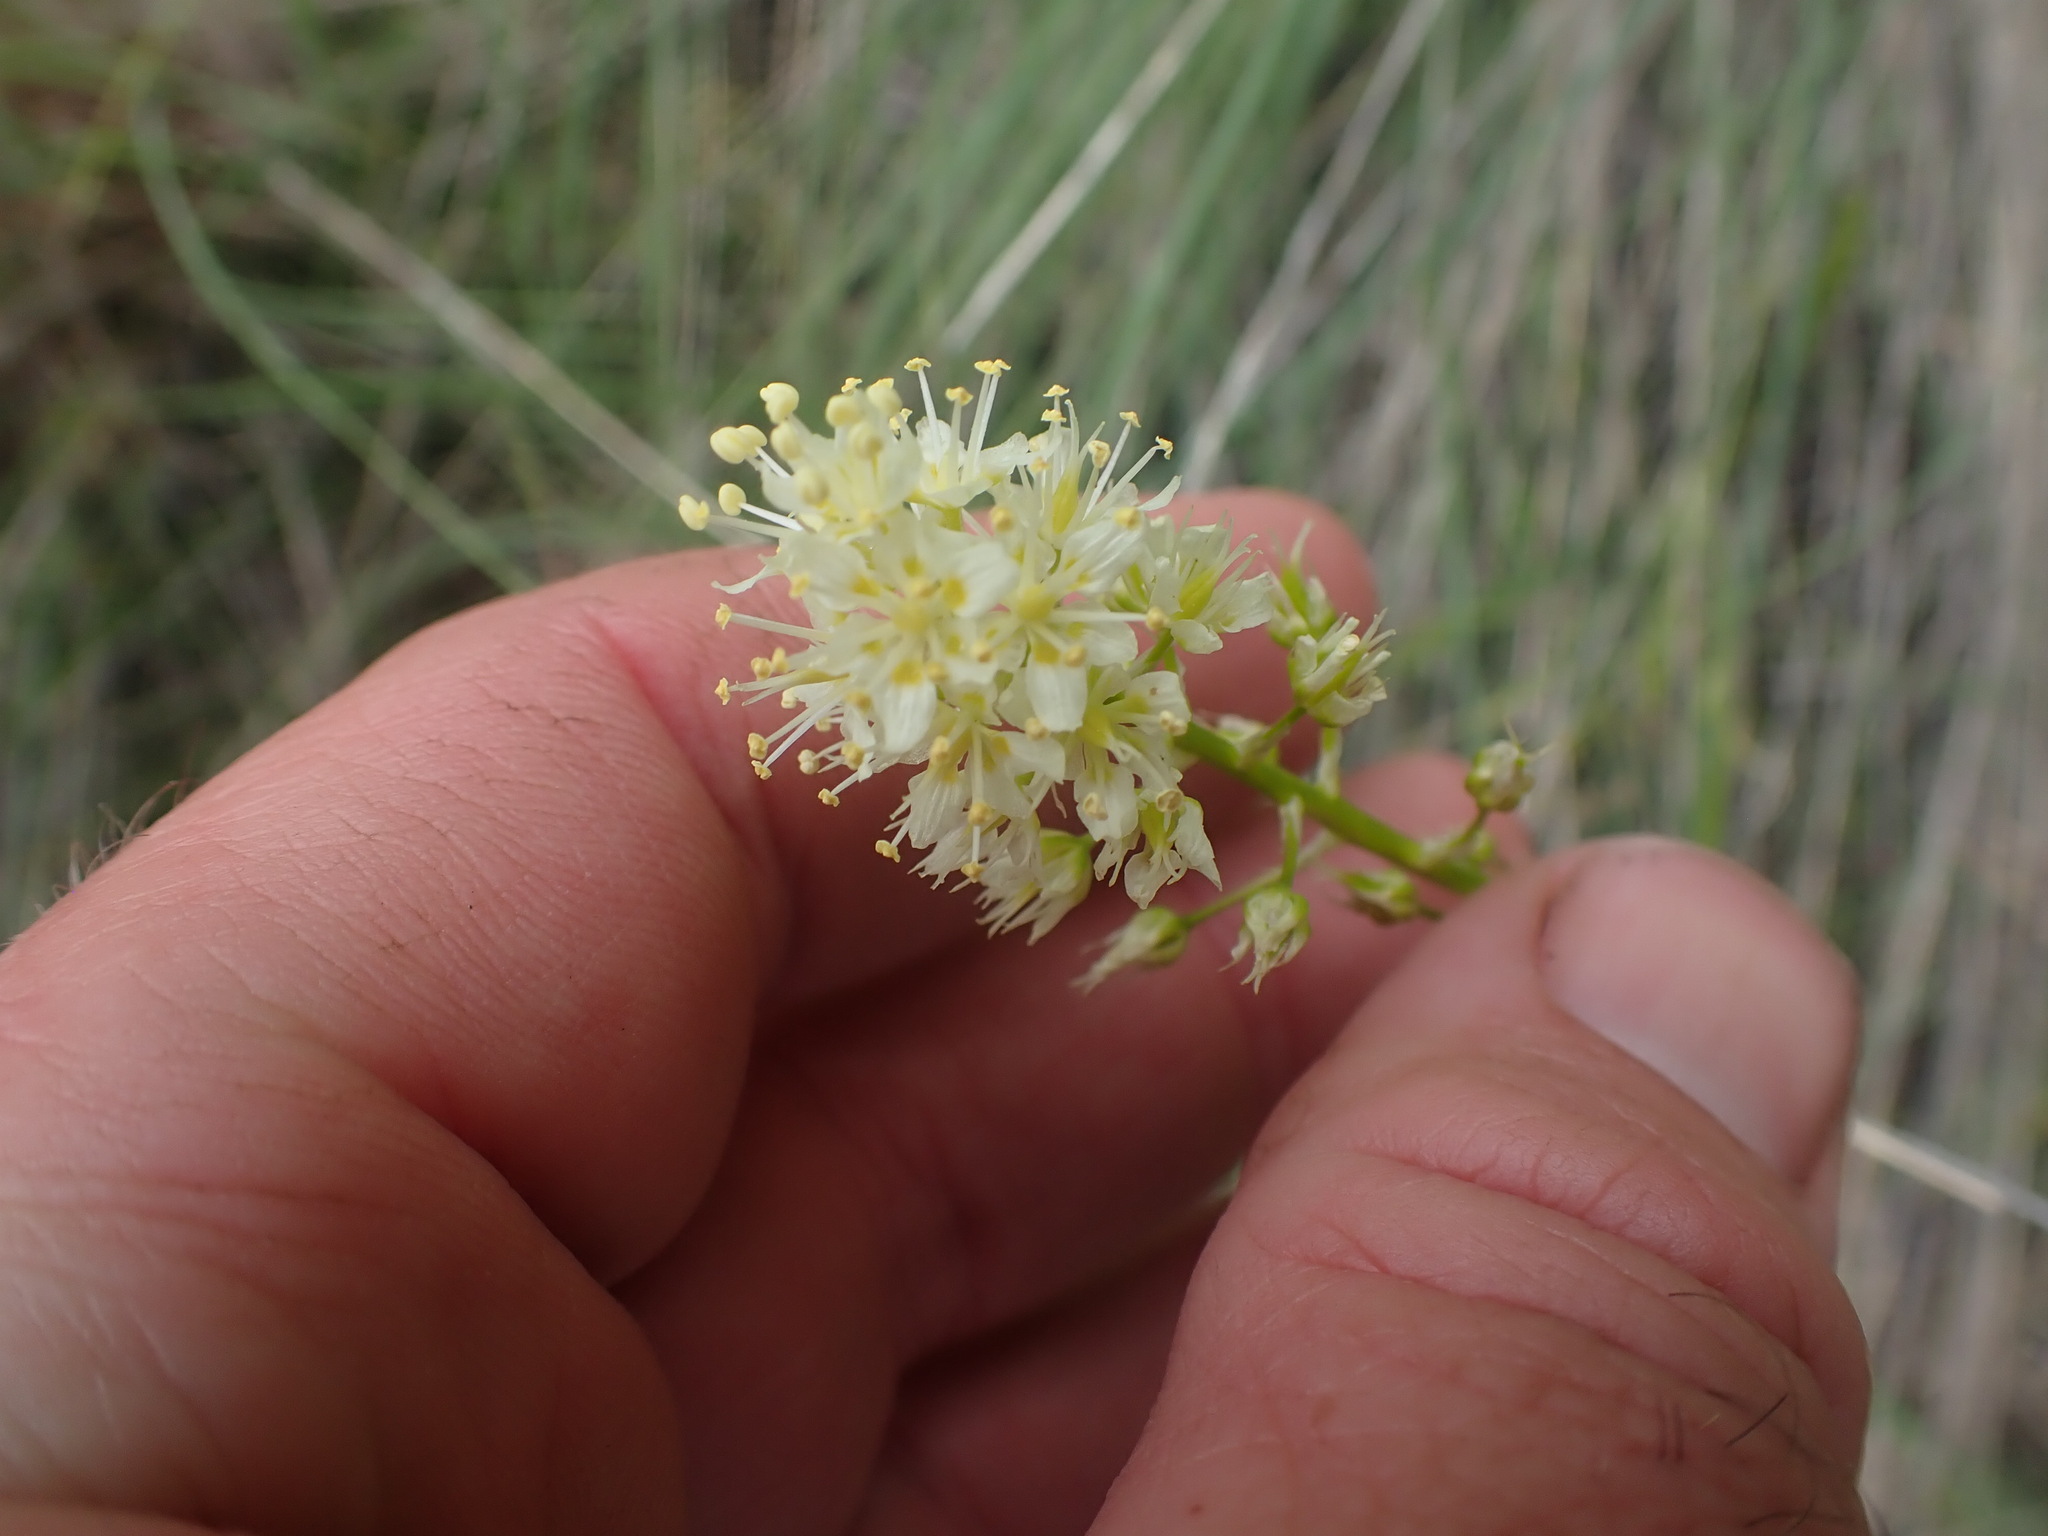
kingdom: Plantae
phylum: Tracheophyta
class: Liliopsida
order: Liliales
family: Melanthiaceae
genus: Toxicoscordion
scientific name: Toxicoscordion venenosum
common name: Meadow death camas
